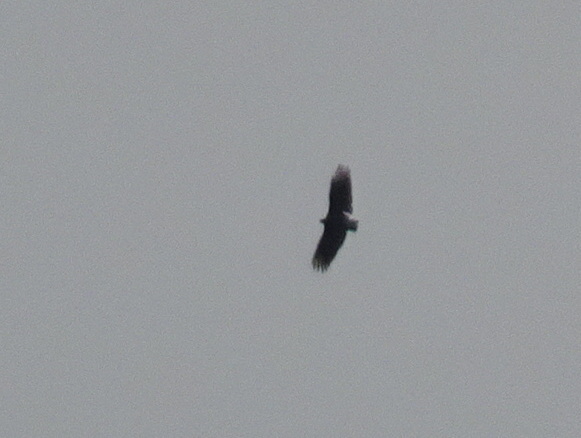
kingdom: Animalia
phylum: Chordata
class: Aves
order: Accipitriformes
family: Cathartidae
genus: Coragyps
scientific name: Coragyps atratus
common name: Black vulture
